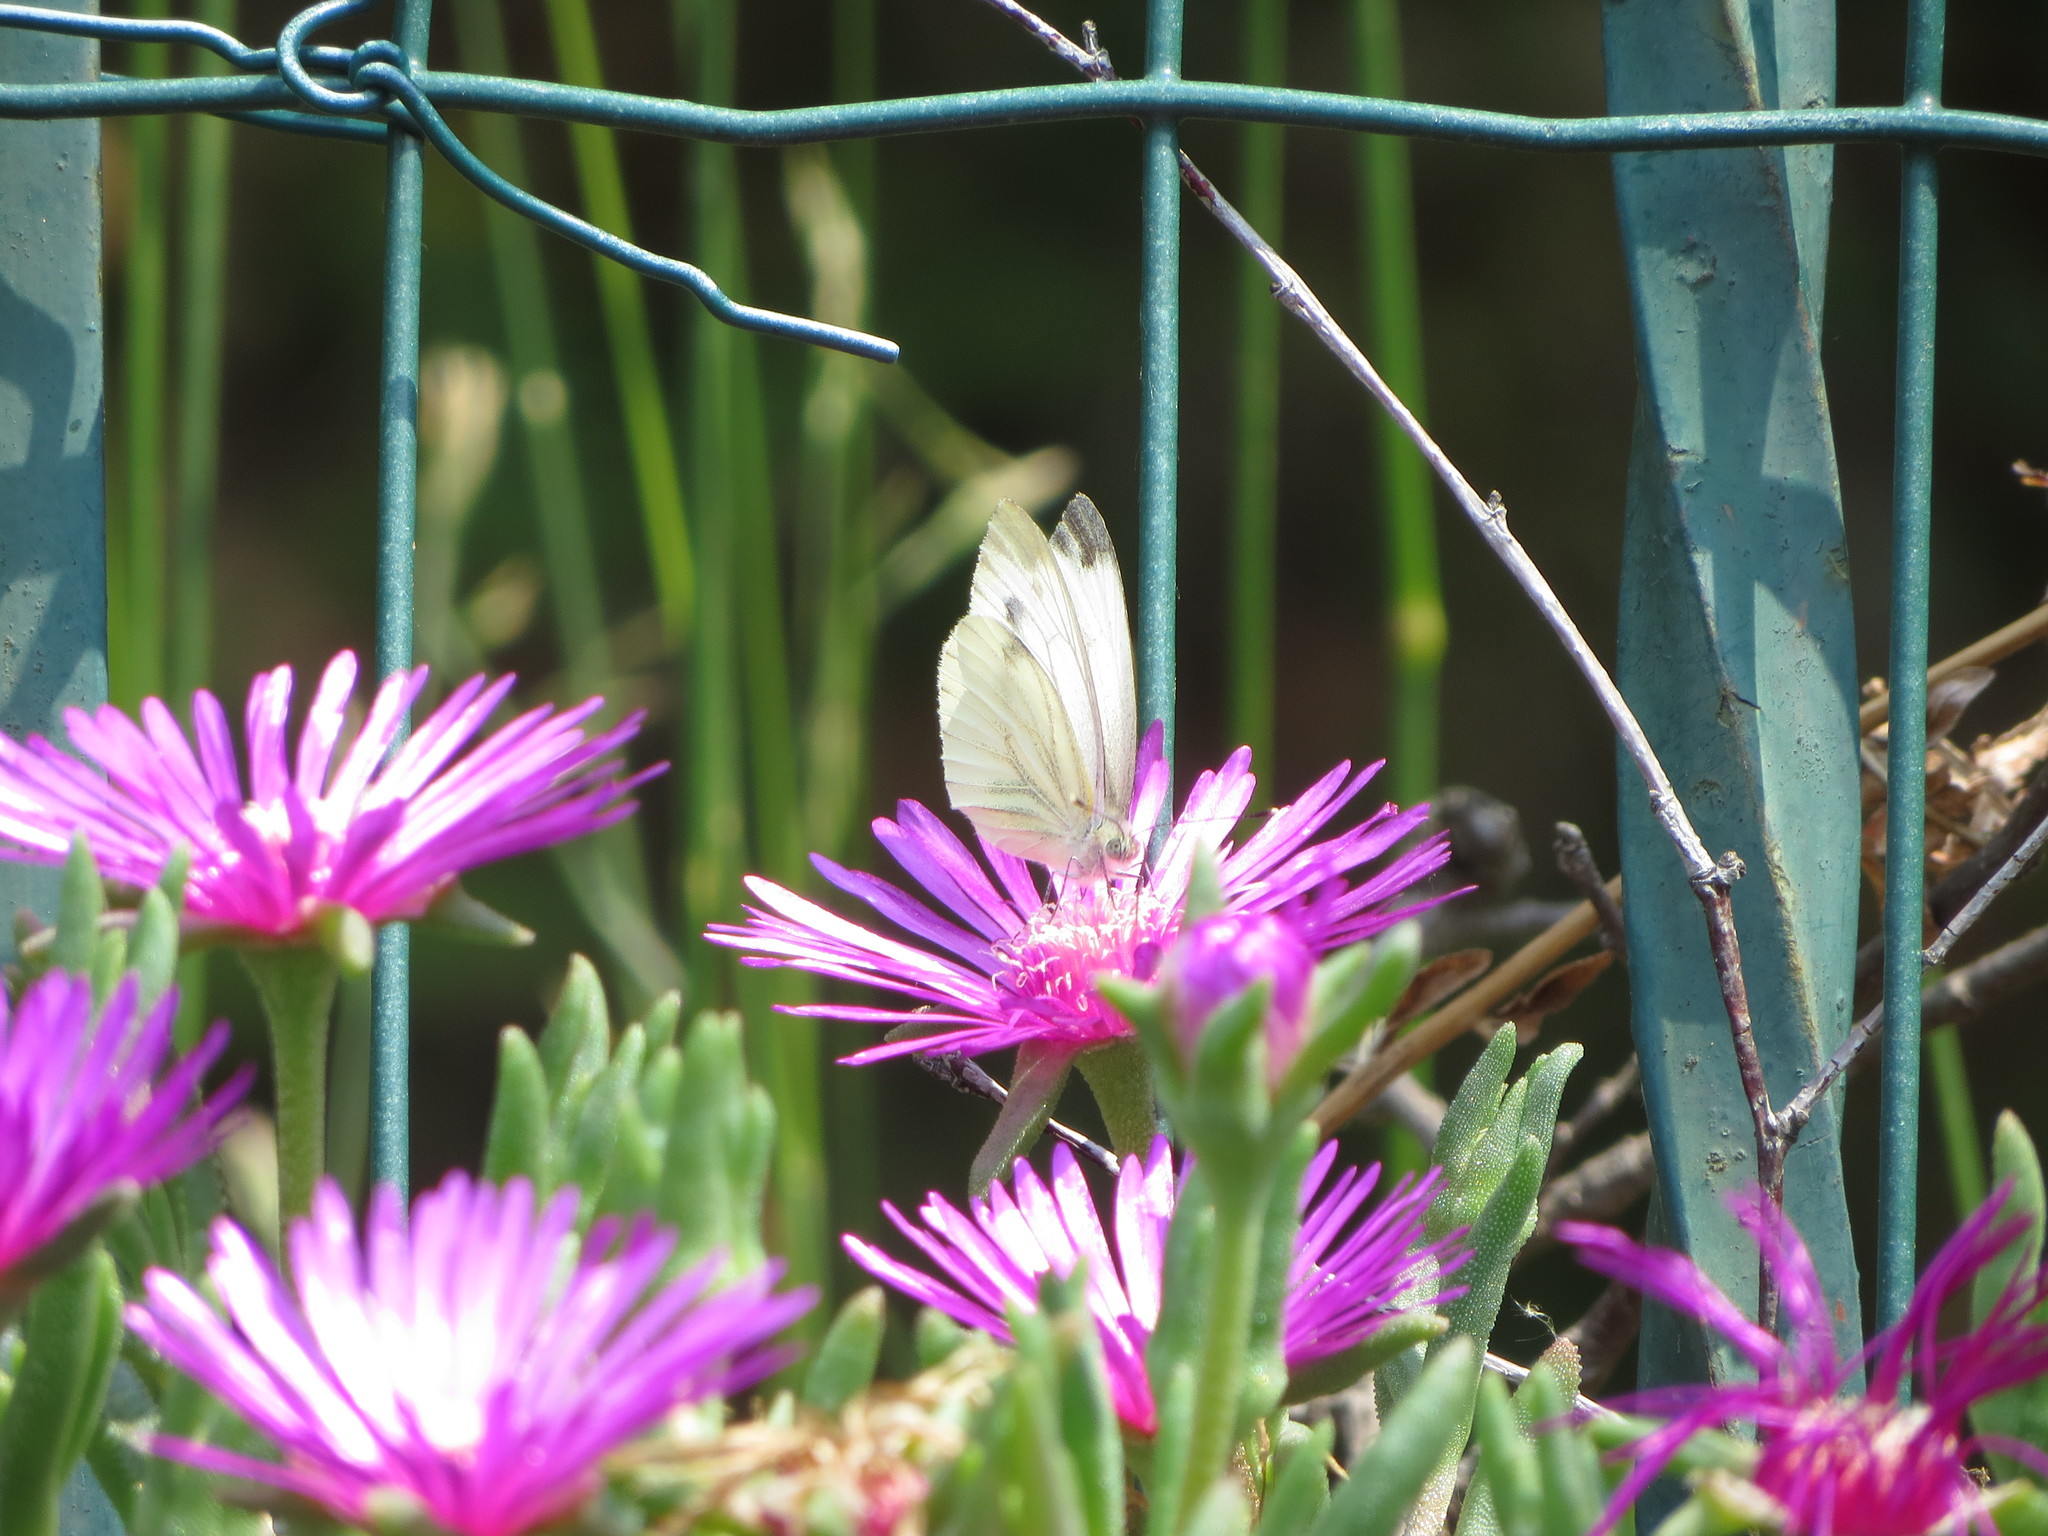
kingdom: Animalia
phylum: Arthropoda
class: Insecta
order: Lepidoptera
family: Pieridae
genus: Pieris
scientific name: Pieris napi
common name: Green-veined white
